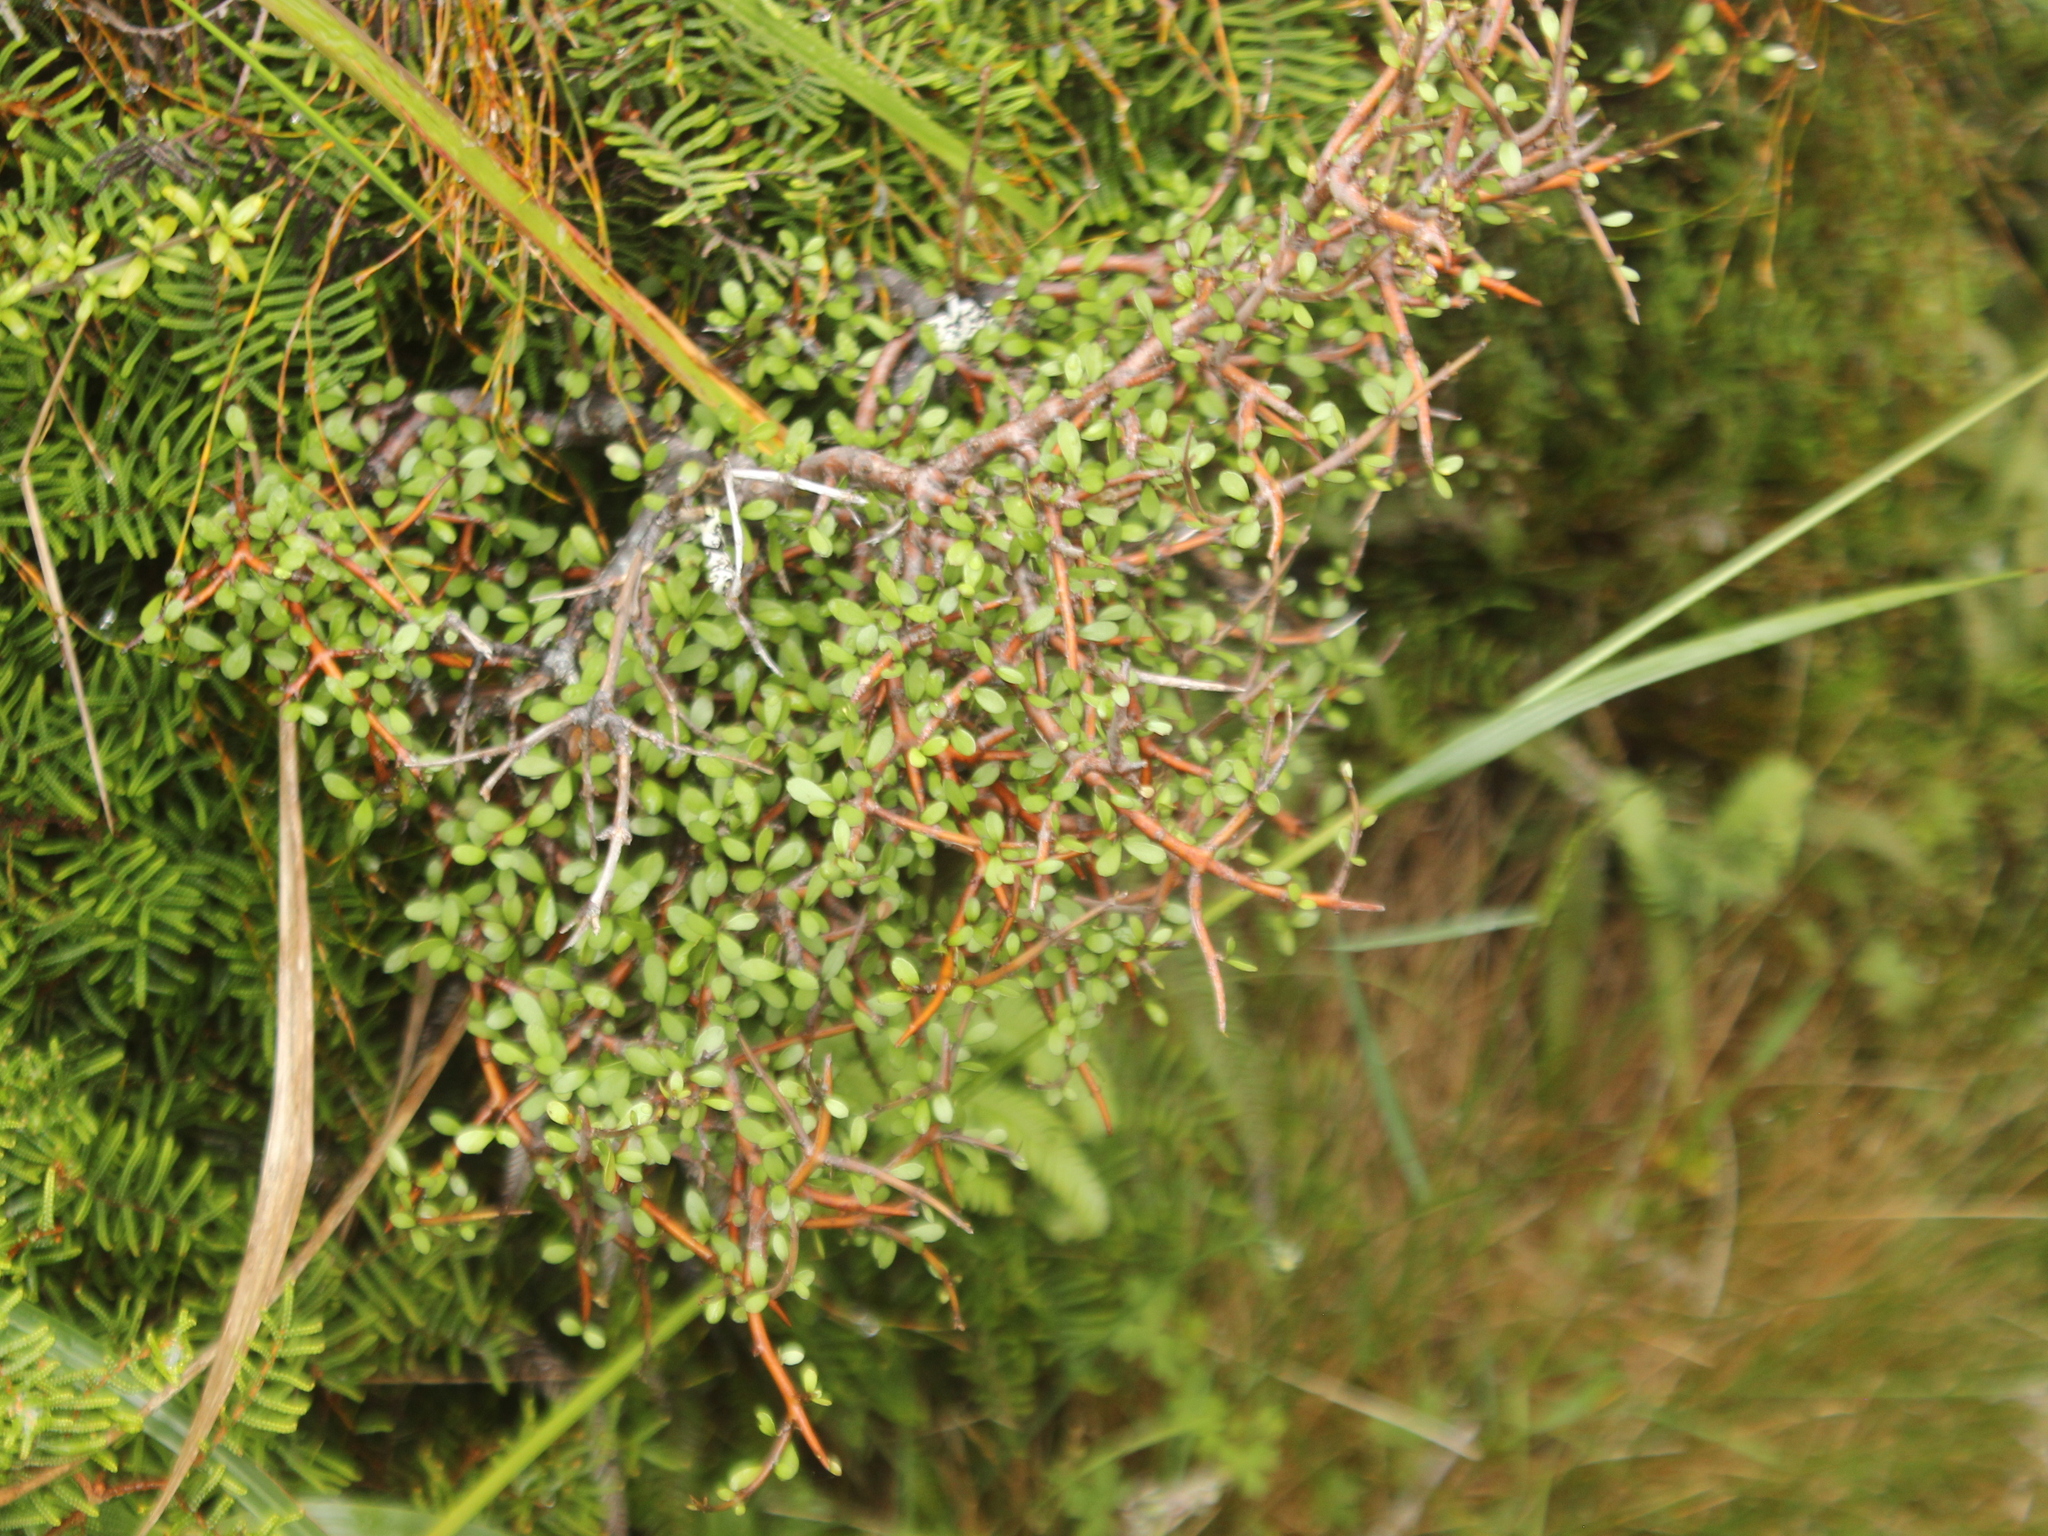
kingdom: Plantae
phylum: Tracheophyta
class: Magnoliopsida
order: Oxalidales
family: Elaeocarpaceae
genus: Aristotelia
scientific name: Aristotelia fruticosa
